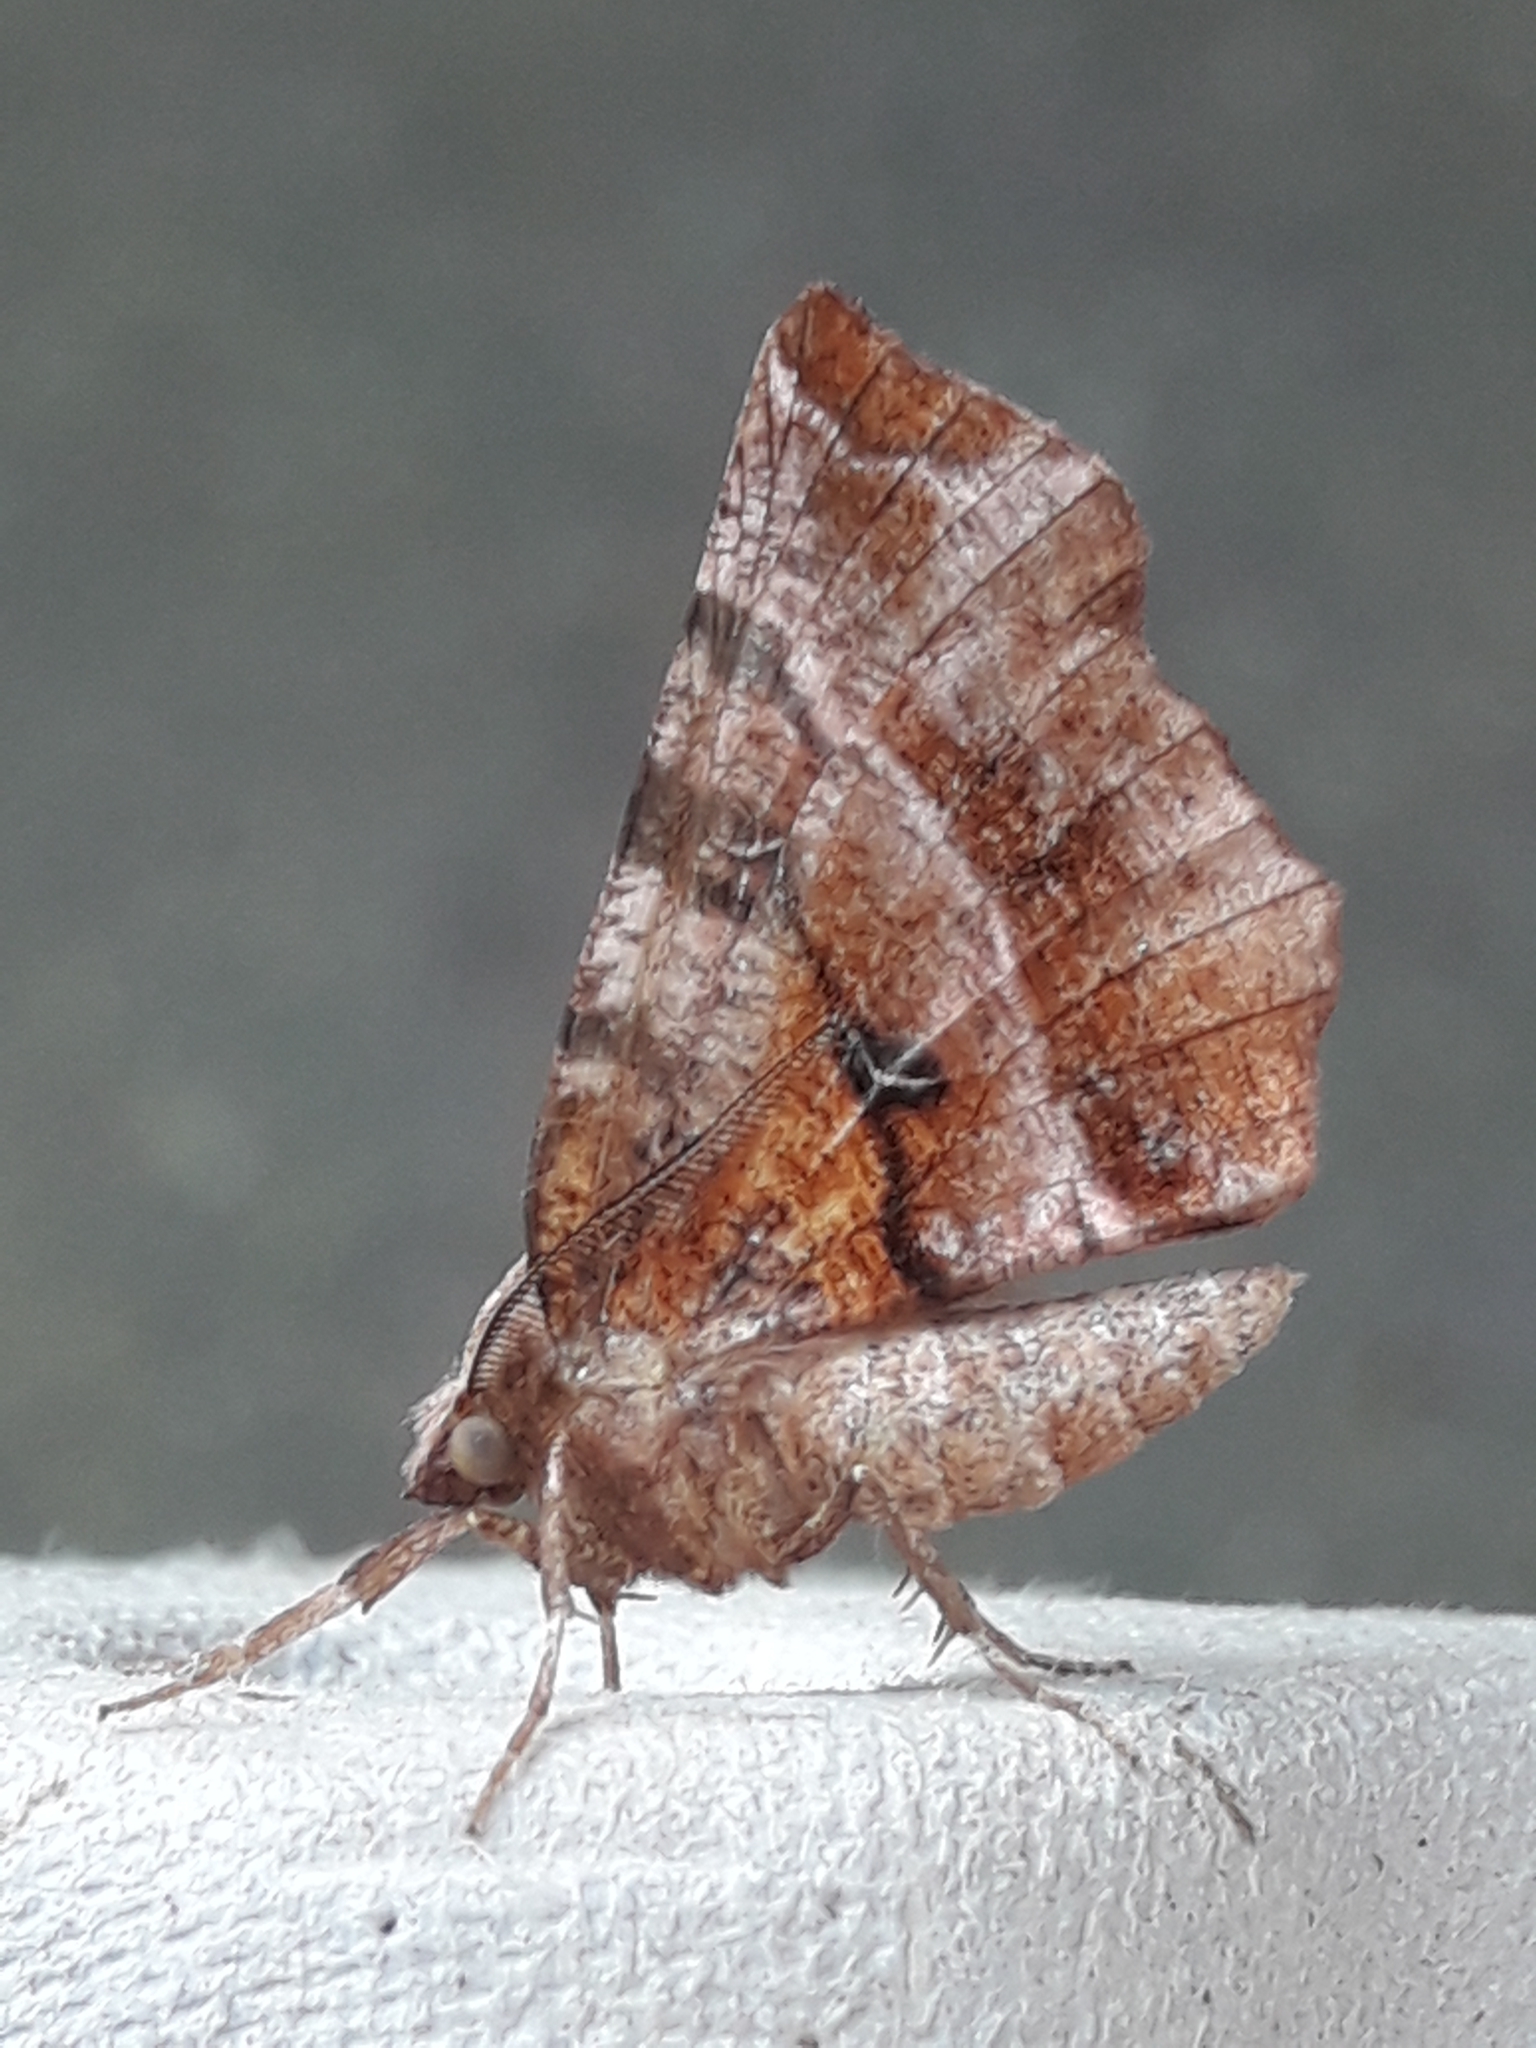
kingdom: Animalia
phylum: Arthropoda
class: Insecta
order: Lepidoptera
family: Geometridae
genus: Selenia
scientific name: Selenia dentaria
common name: Early thorn
